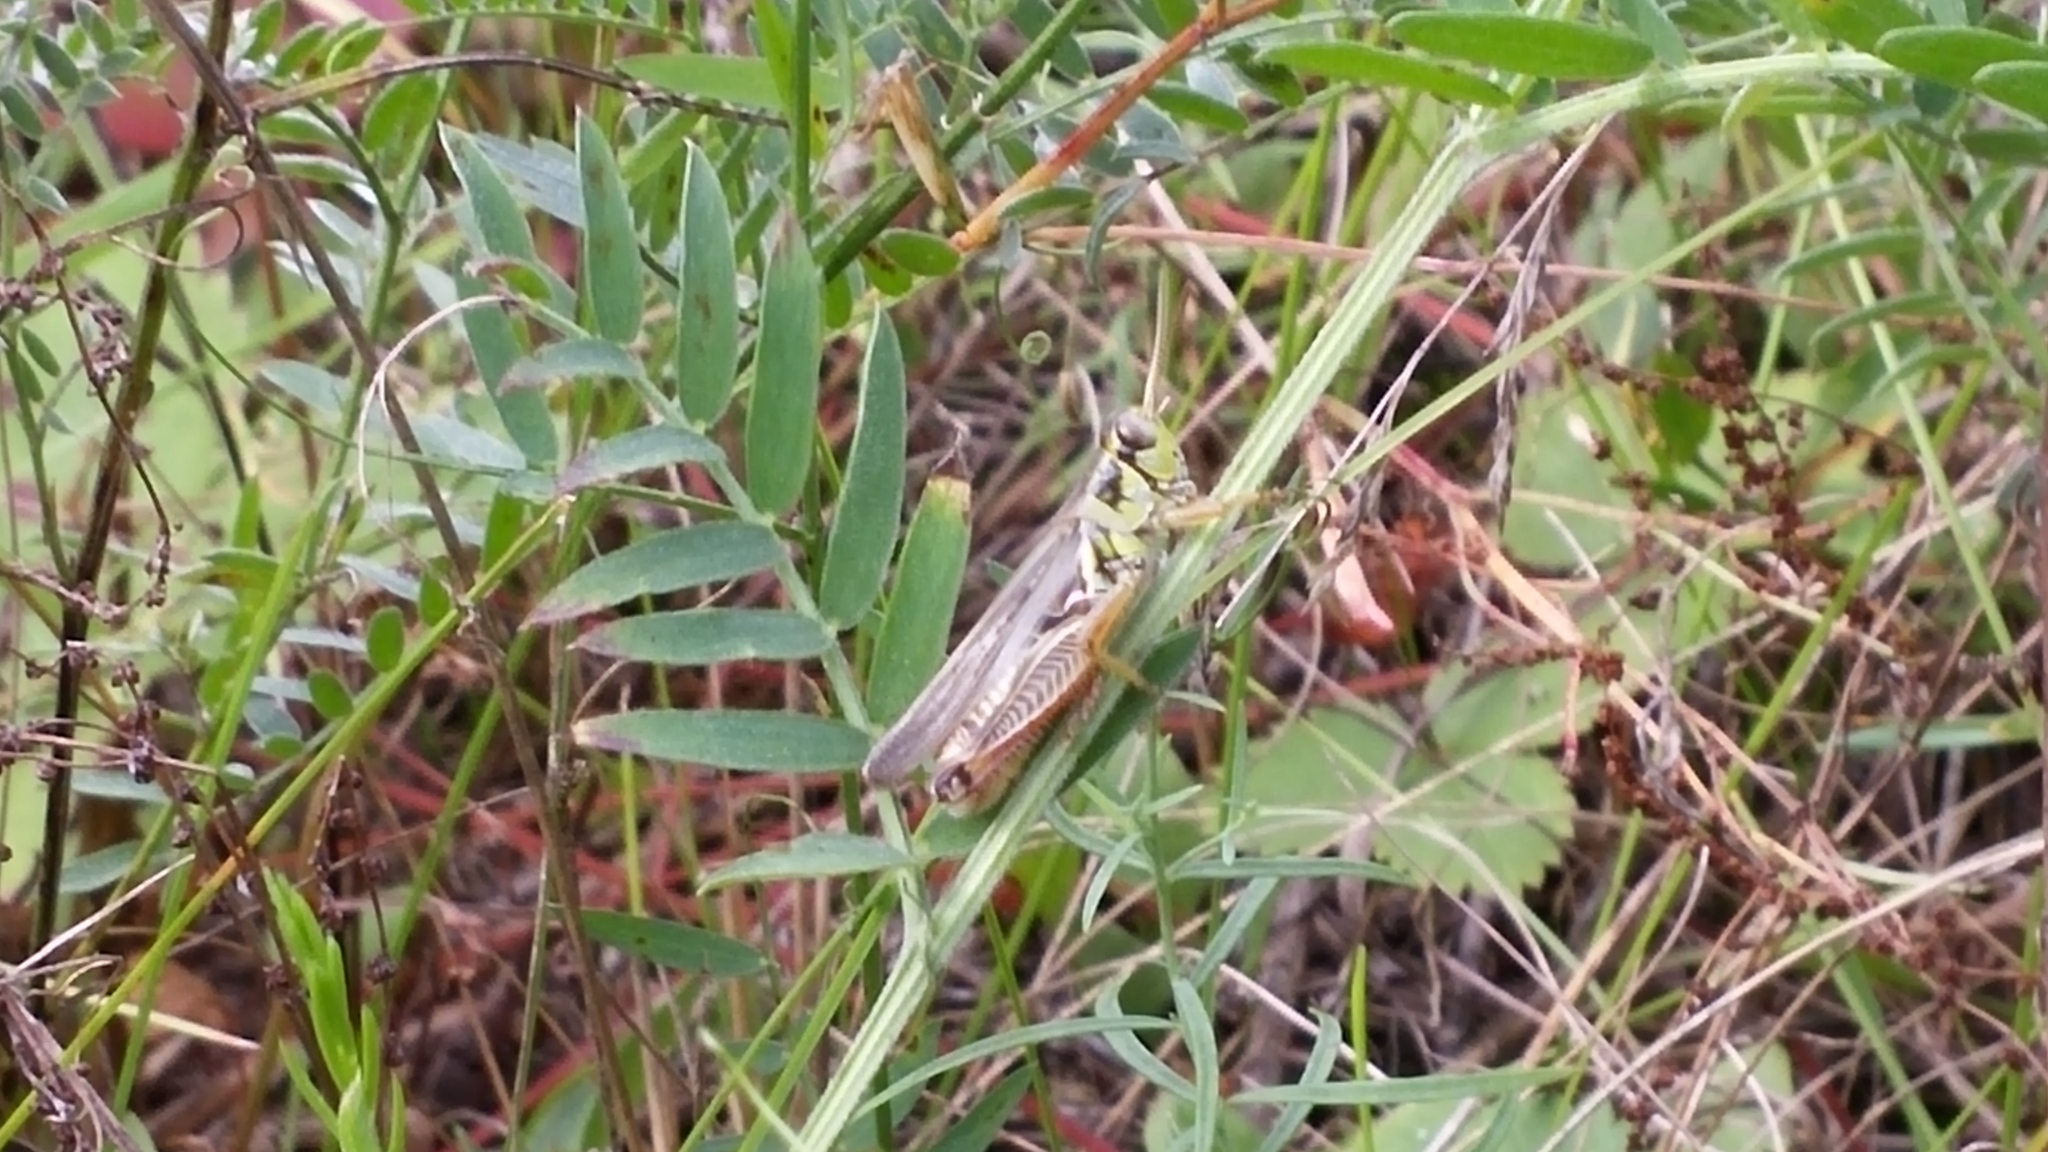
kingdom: Animalia
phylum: Arthropoda
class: Insecta
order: Orthoptera
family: Acrididae
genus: Melanoplus
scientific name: Melanoplus femurrubrum
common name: Red-legged grasshopper
